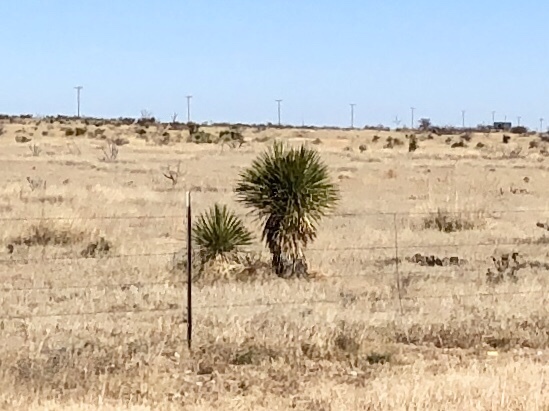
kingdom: Plantae
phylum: Tracheophyta
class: Liliopsida
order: Asparagales
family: Asparagaceae
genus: Yucca
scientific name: Yucca elata
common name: Palmella
